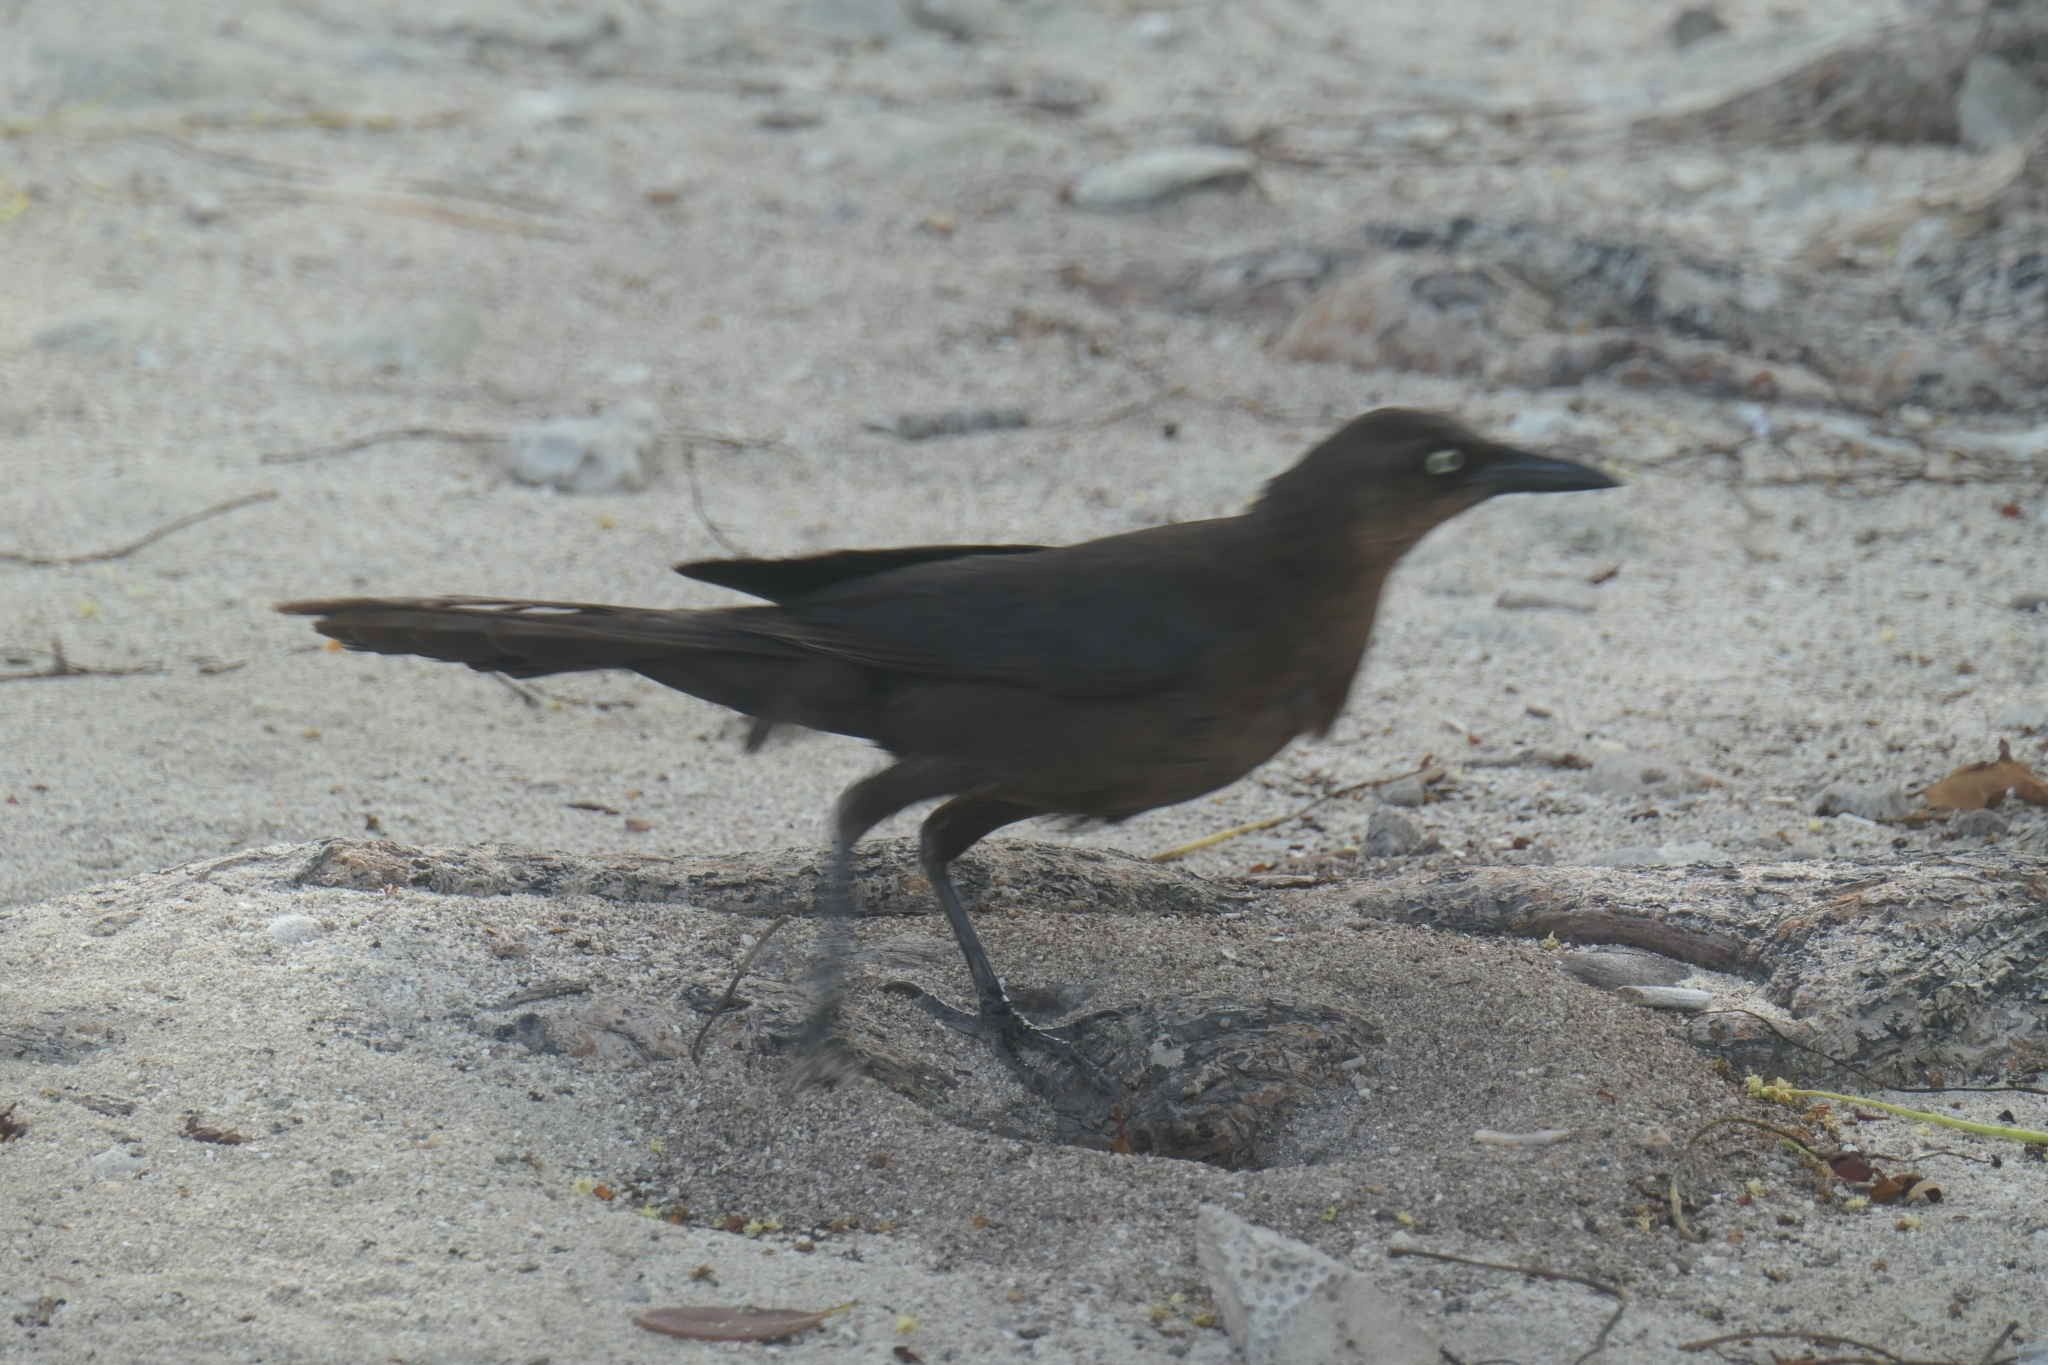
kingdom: Animalia
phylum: Chordata
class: Aves
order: Passeriformes
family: Icteridae
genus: Quiscalus
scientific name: Quiscalus mexicanus
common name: Great-tailed grackle
